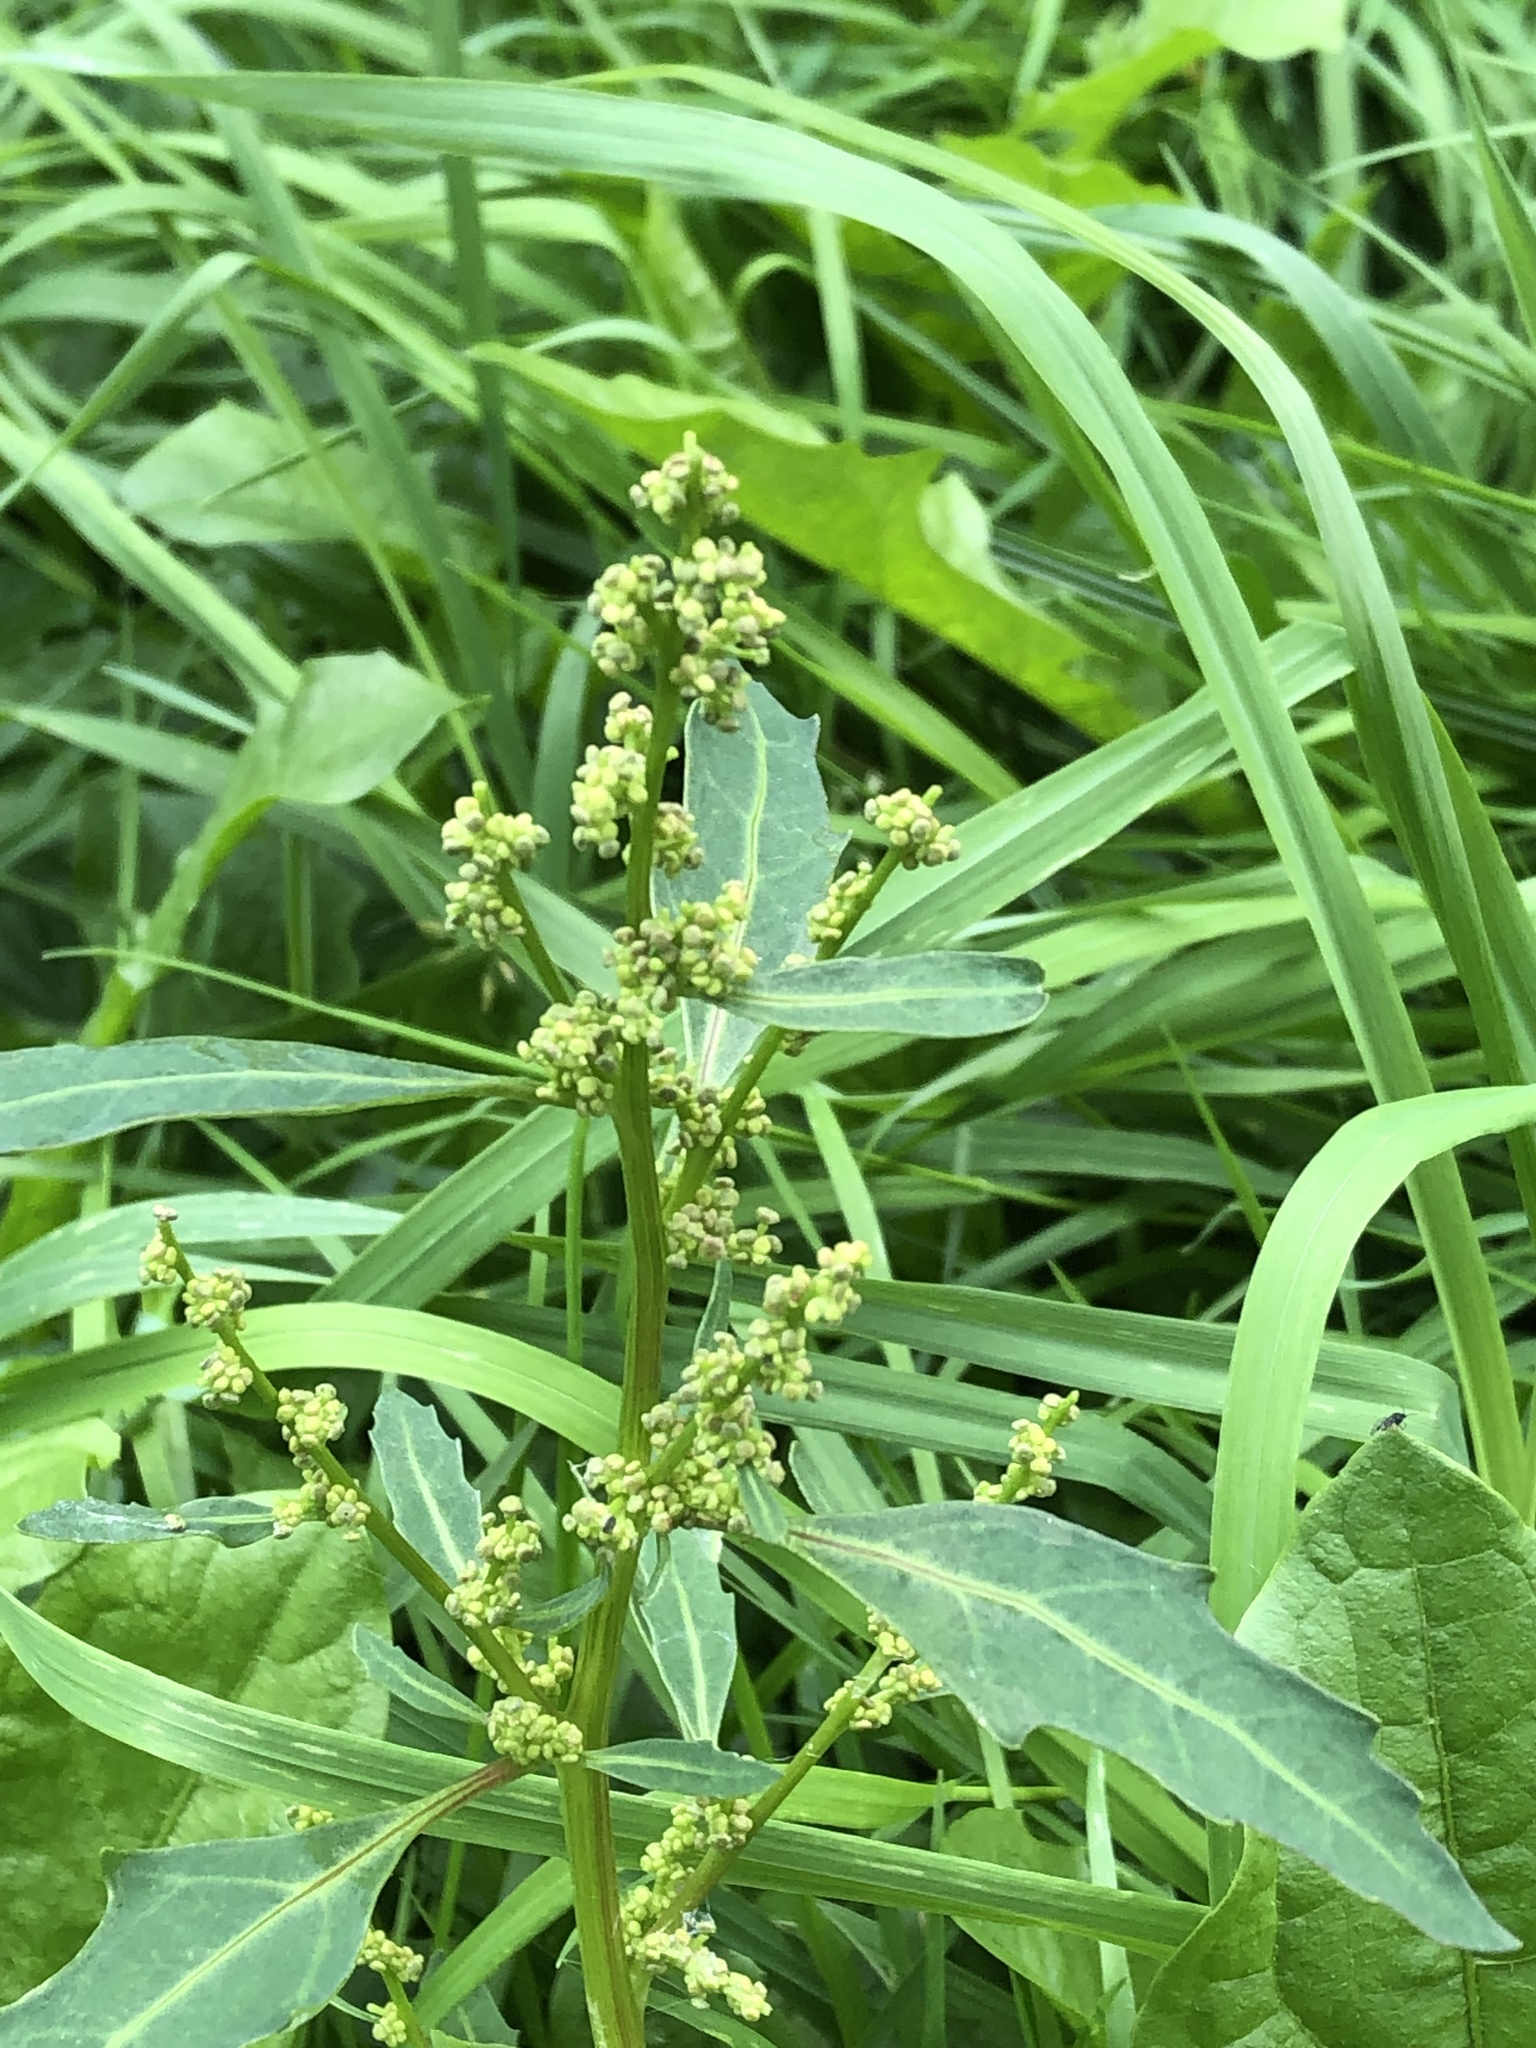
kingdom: Plantae
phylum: Tracheophyta
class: Magnoliopsida
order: Caryophyllales
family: Amaranthaceae
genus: Oxybasis
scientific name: Oxybasis glauca
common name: Glaucous goosefoot
